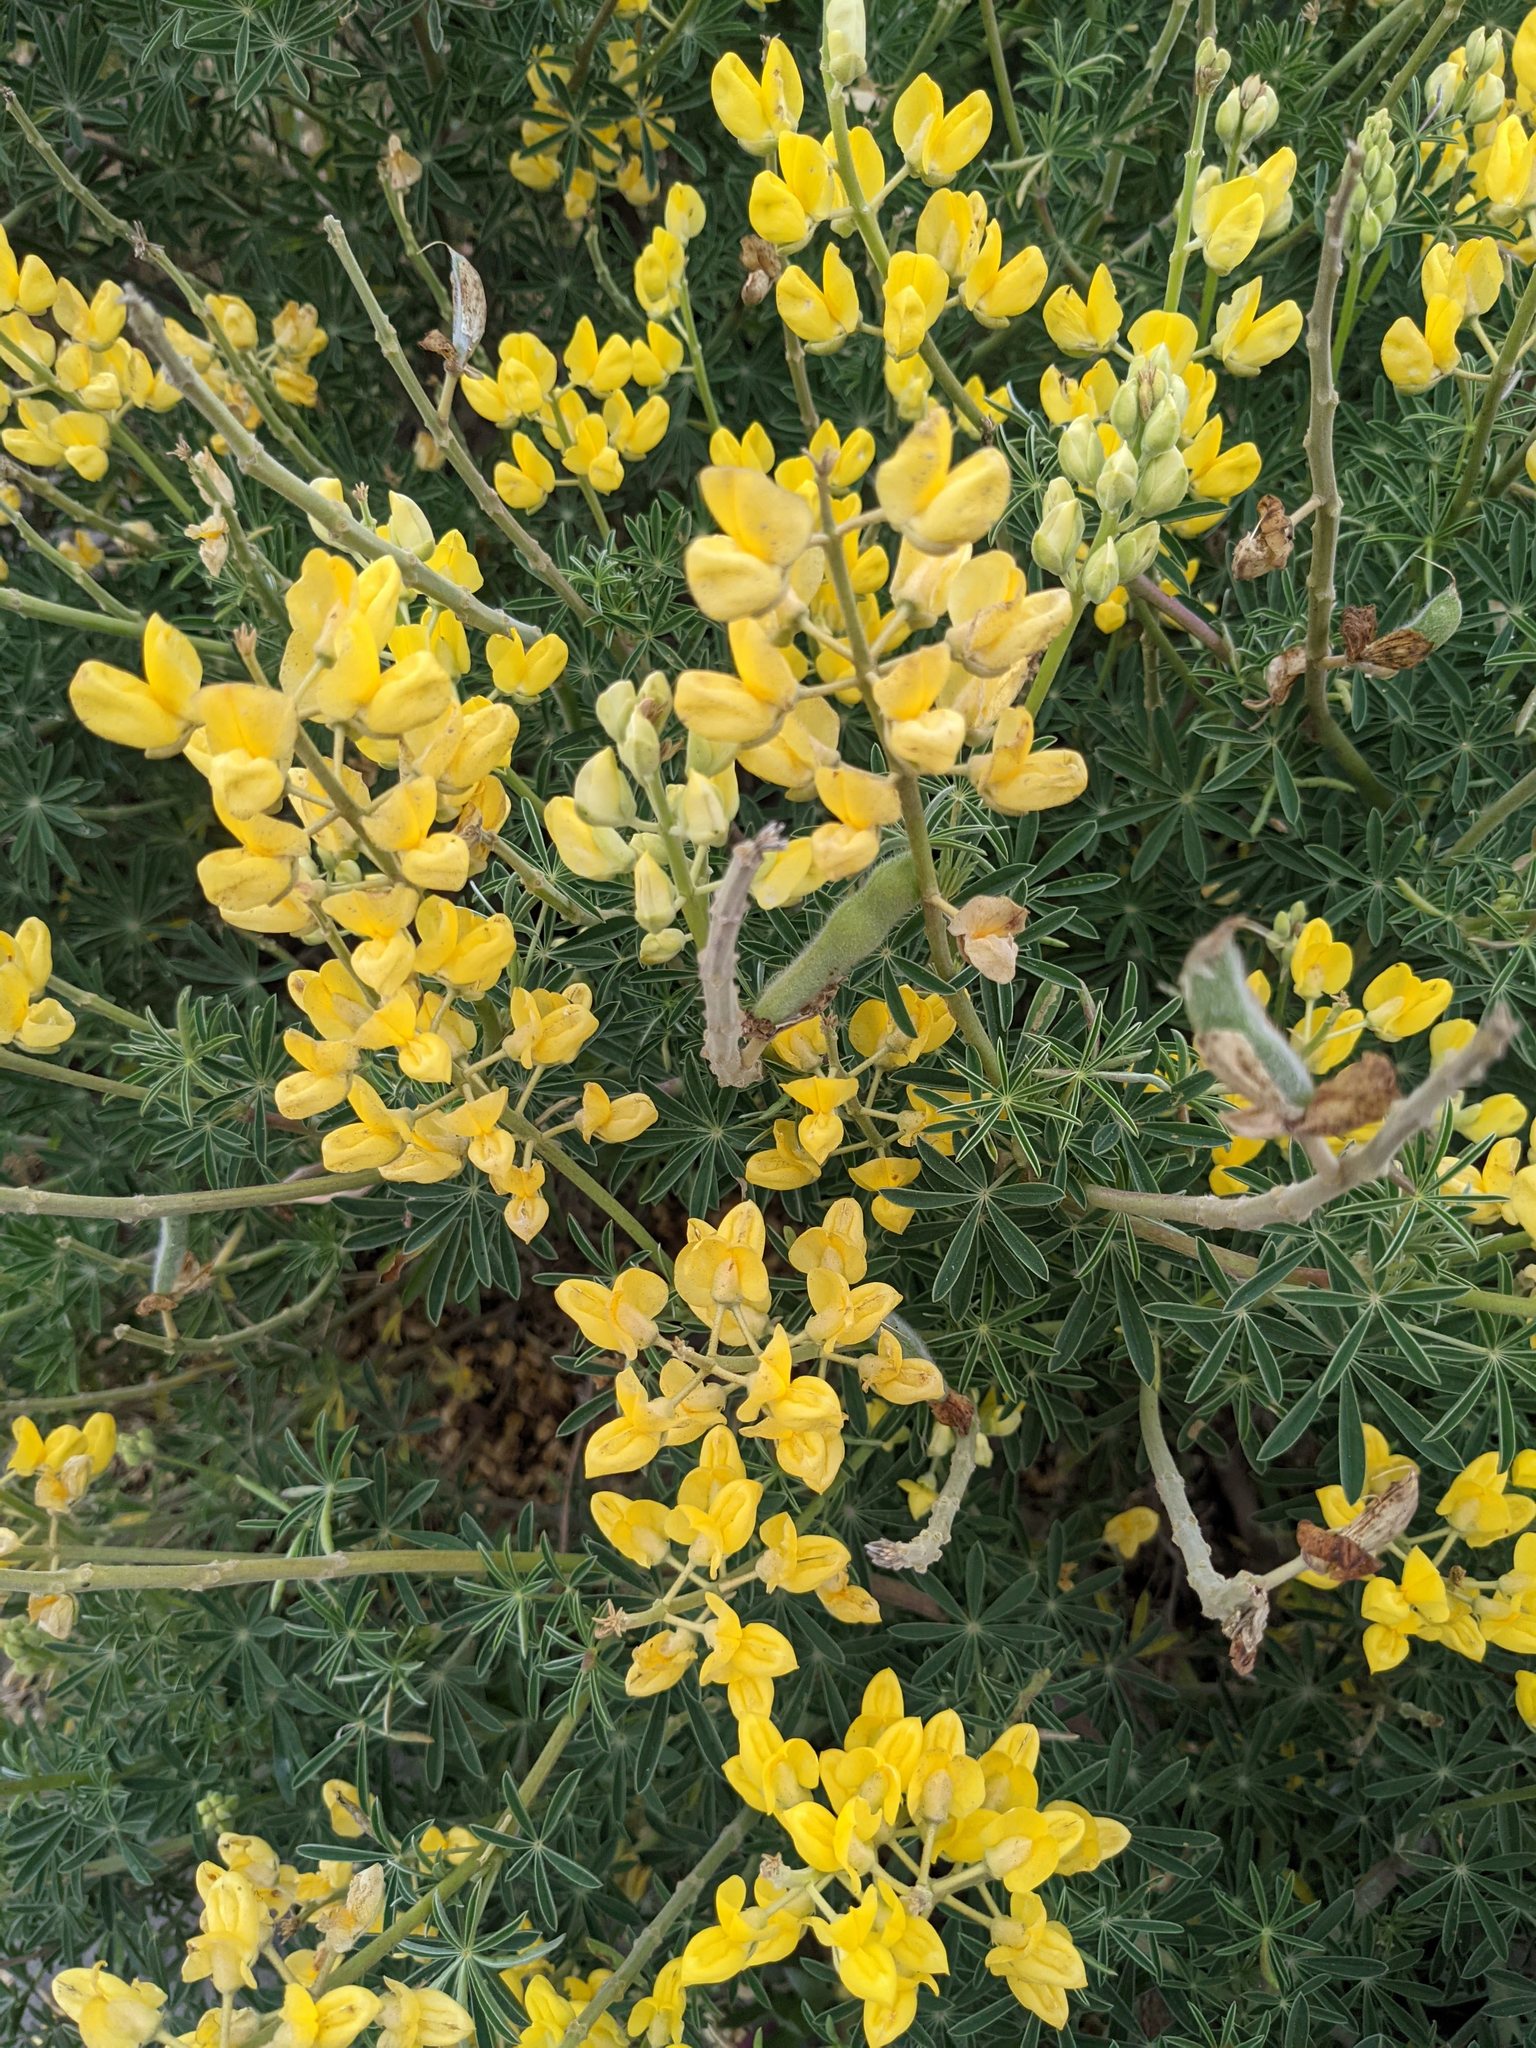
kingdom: Plantae
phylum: Tracheophyta
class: Magnoliopsida
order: Fabales
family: Fabaceae
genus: Lupinus
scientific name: Lupinus arboreus
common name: Yellow bush lupine
